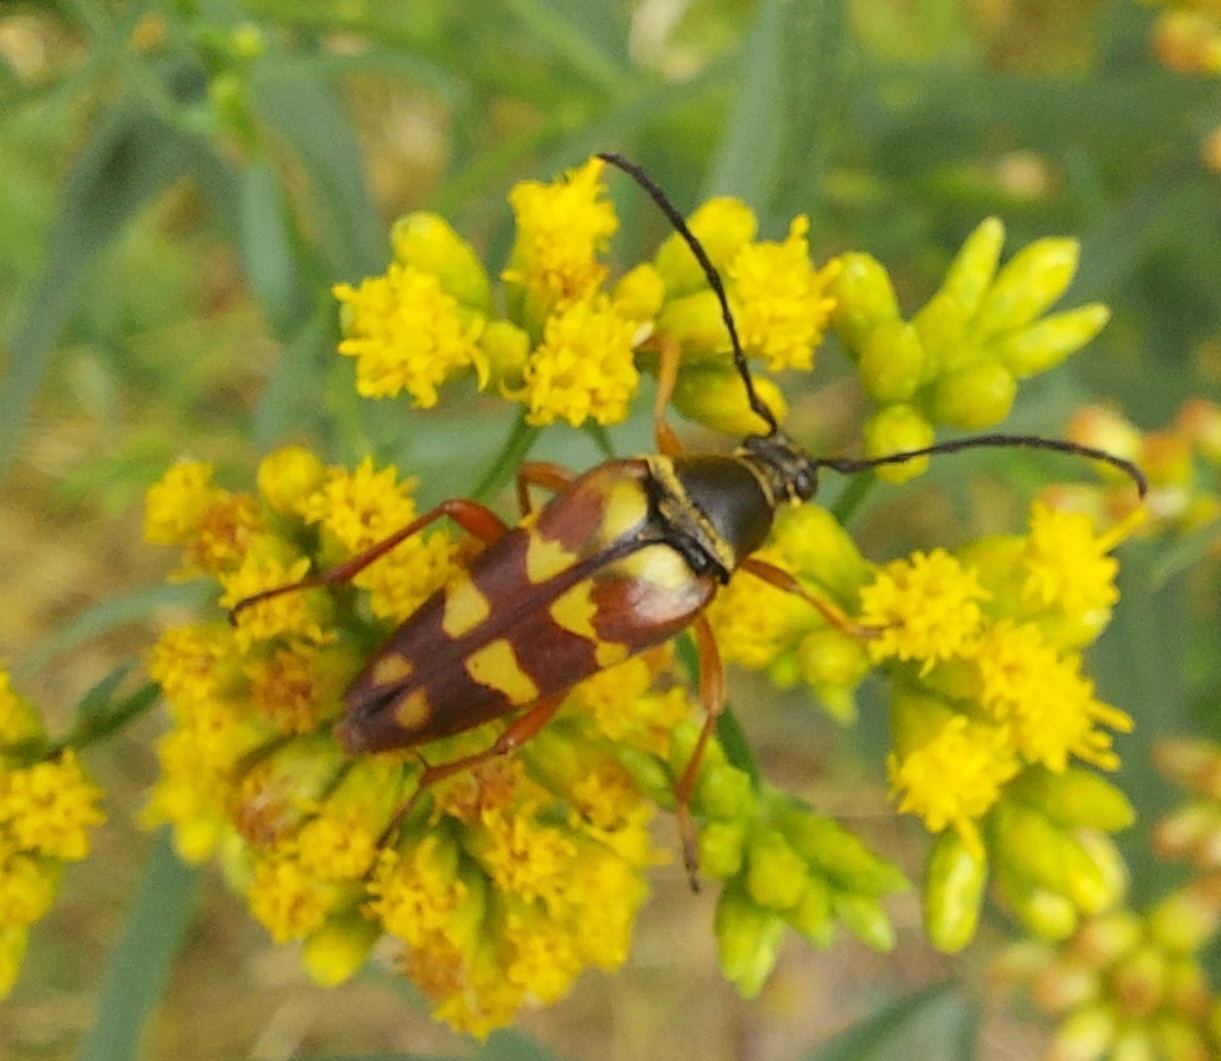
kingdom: Animalia
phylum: Arthropoda
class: Insecta
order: Coleoptera
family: Cerambycidae
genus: Typocerus
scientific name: Typocerus velutinus
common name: Banded longhorn beetle
